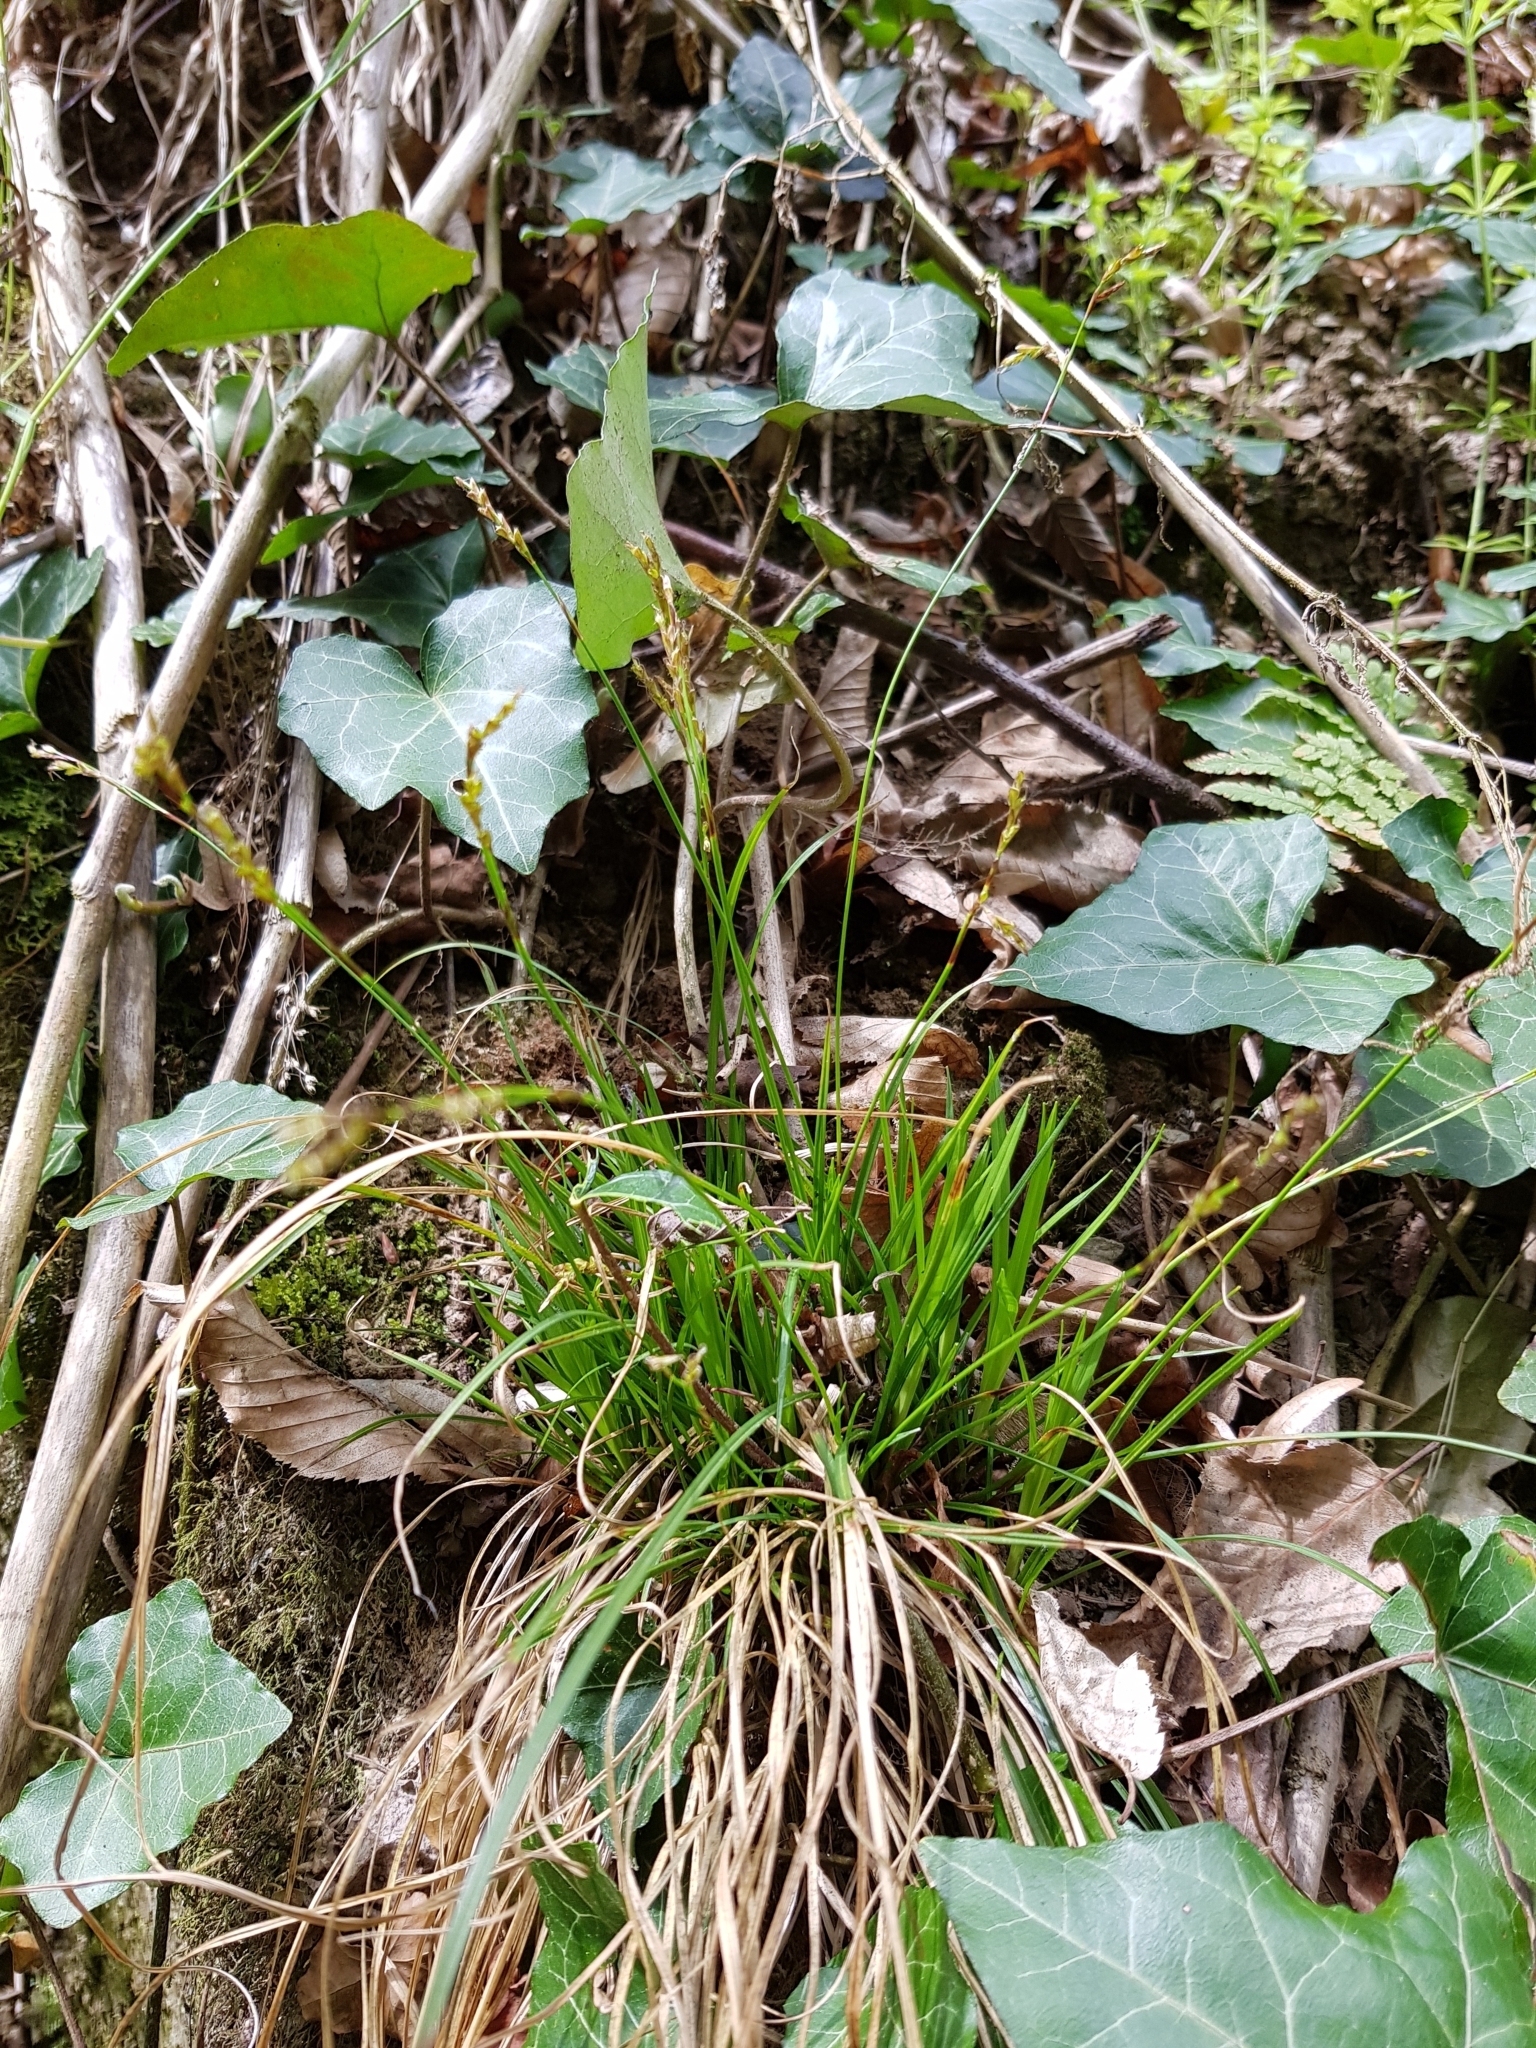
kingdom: Plantae
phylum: Tracheophyta
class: Liliopsida
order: Poales
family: Cyperaceae
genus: Carex
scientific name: Carex digitata
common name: Fingered sedge
